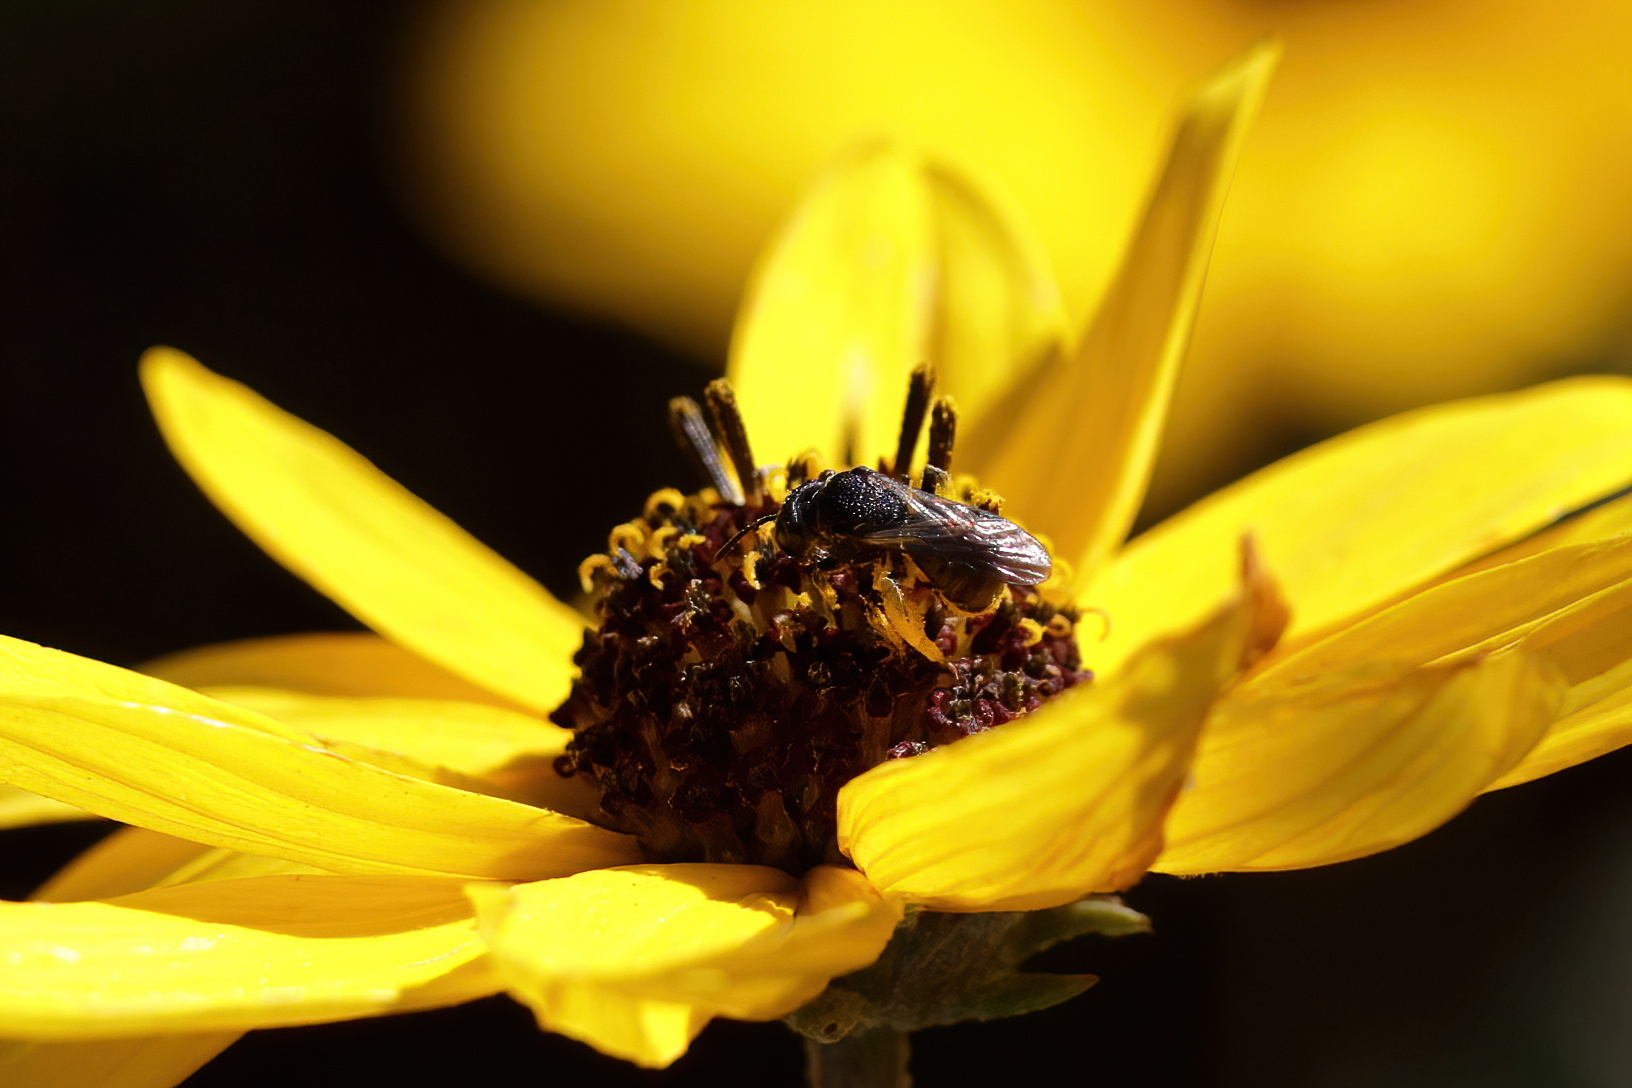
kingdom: Animalia
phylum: Arthropoda
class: Insecta
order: Hymenoptera
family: Andrenidae
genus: Protandrena
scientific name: Protandrena rugosa
